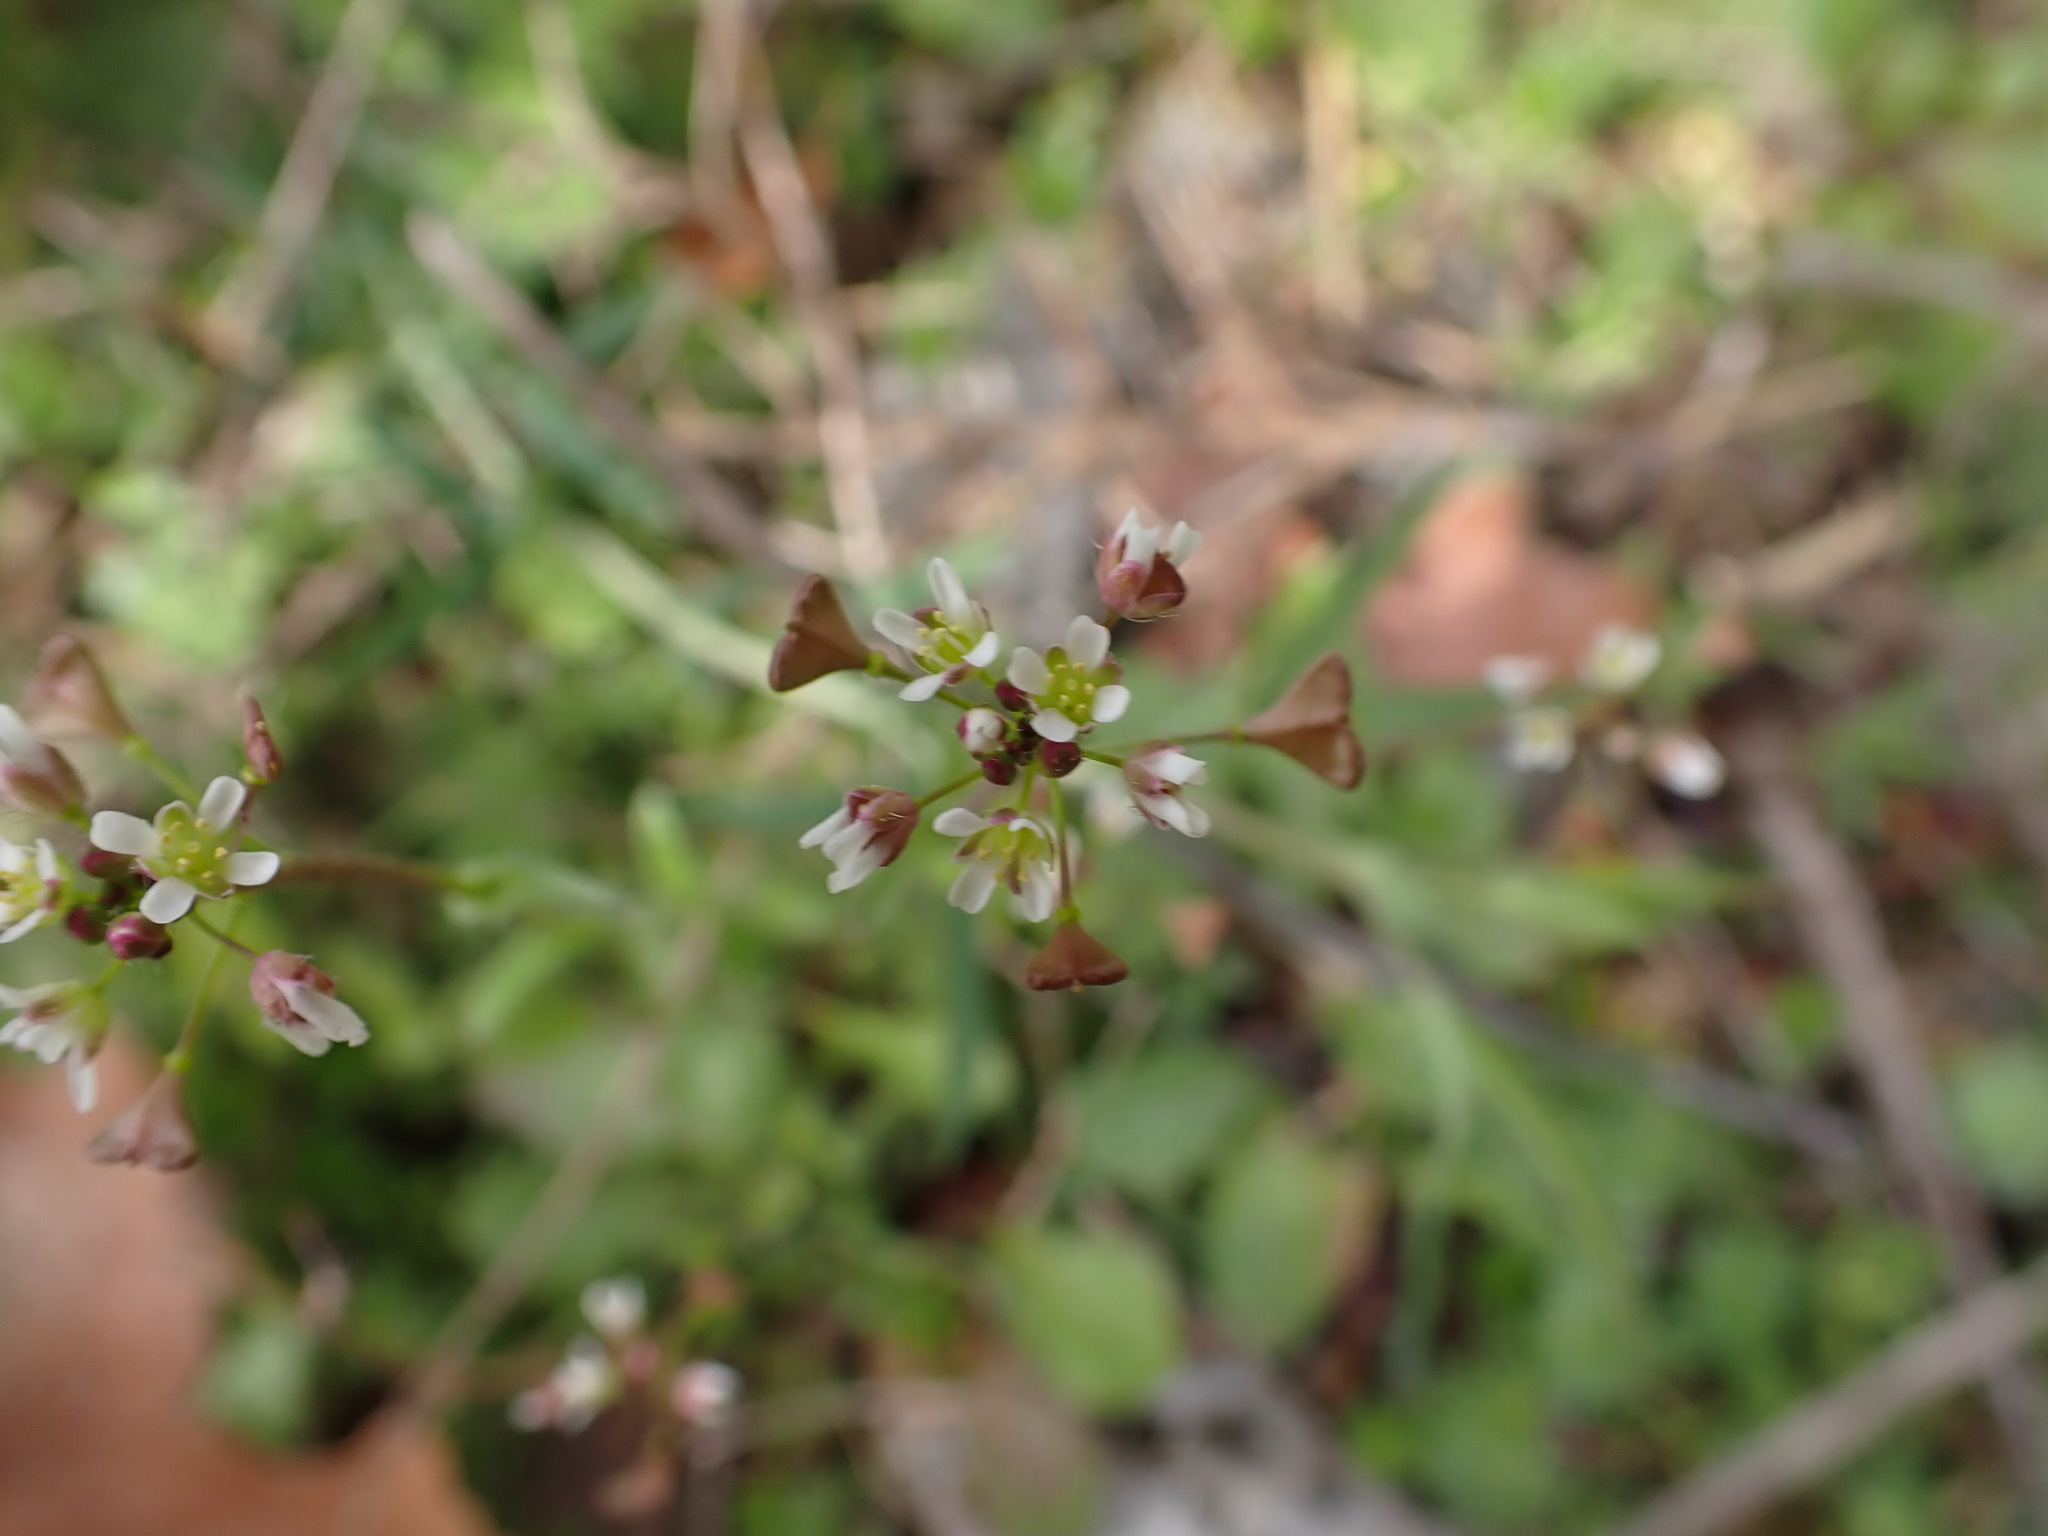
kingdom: Plantae
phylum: Tracheophyta
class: Magnoliopsida
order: Brassicales
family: Brassicaceae
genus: Capsella
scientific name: Capsella rubella
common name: Pink shepherd's-purse
